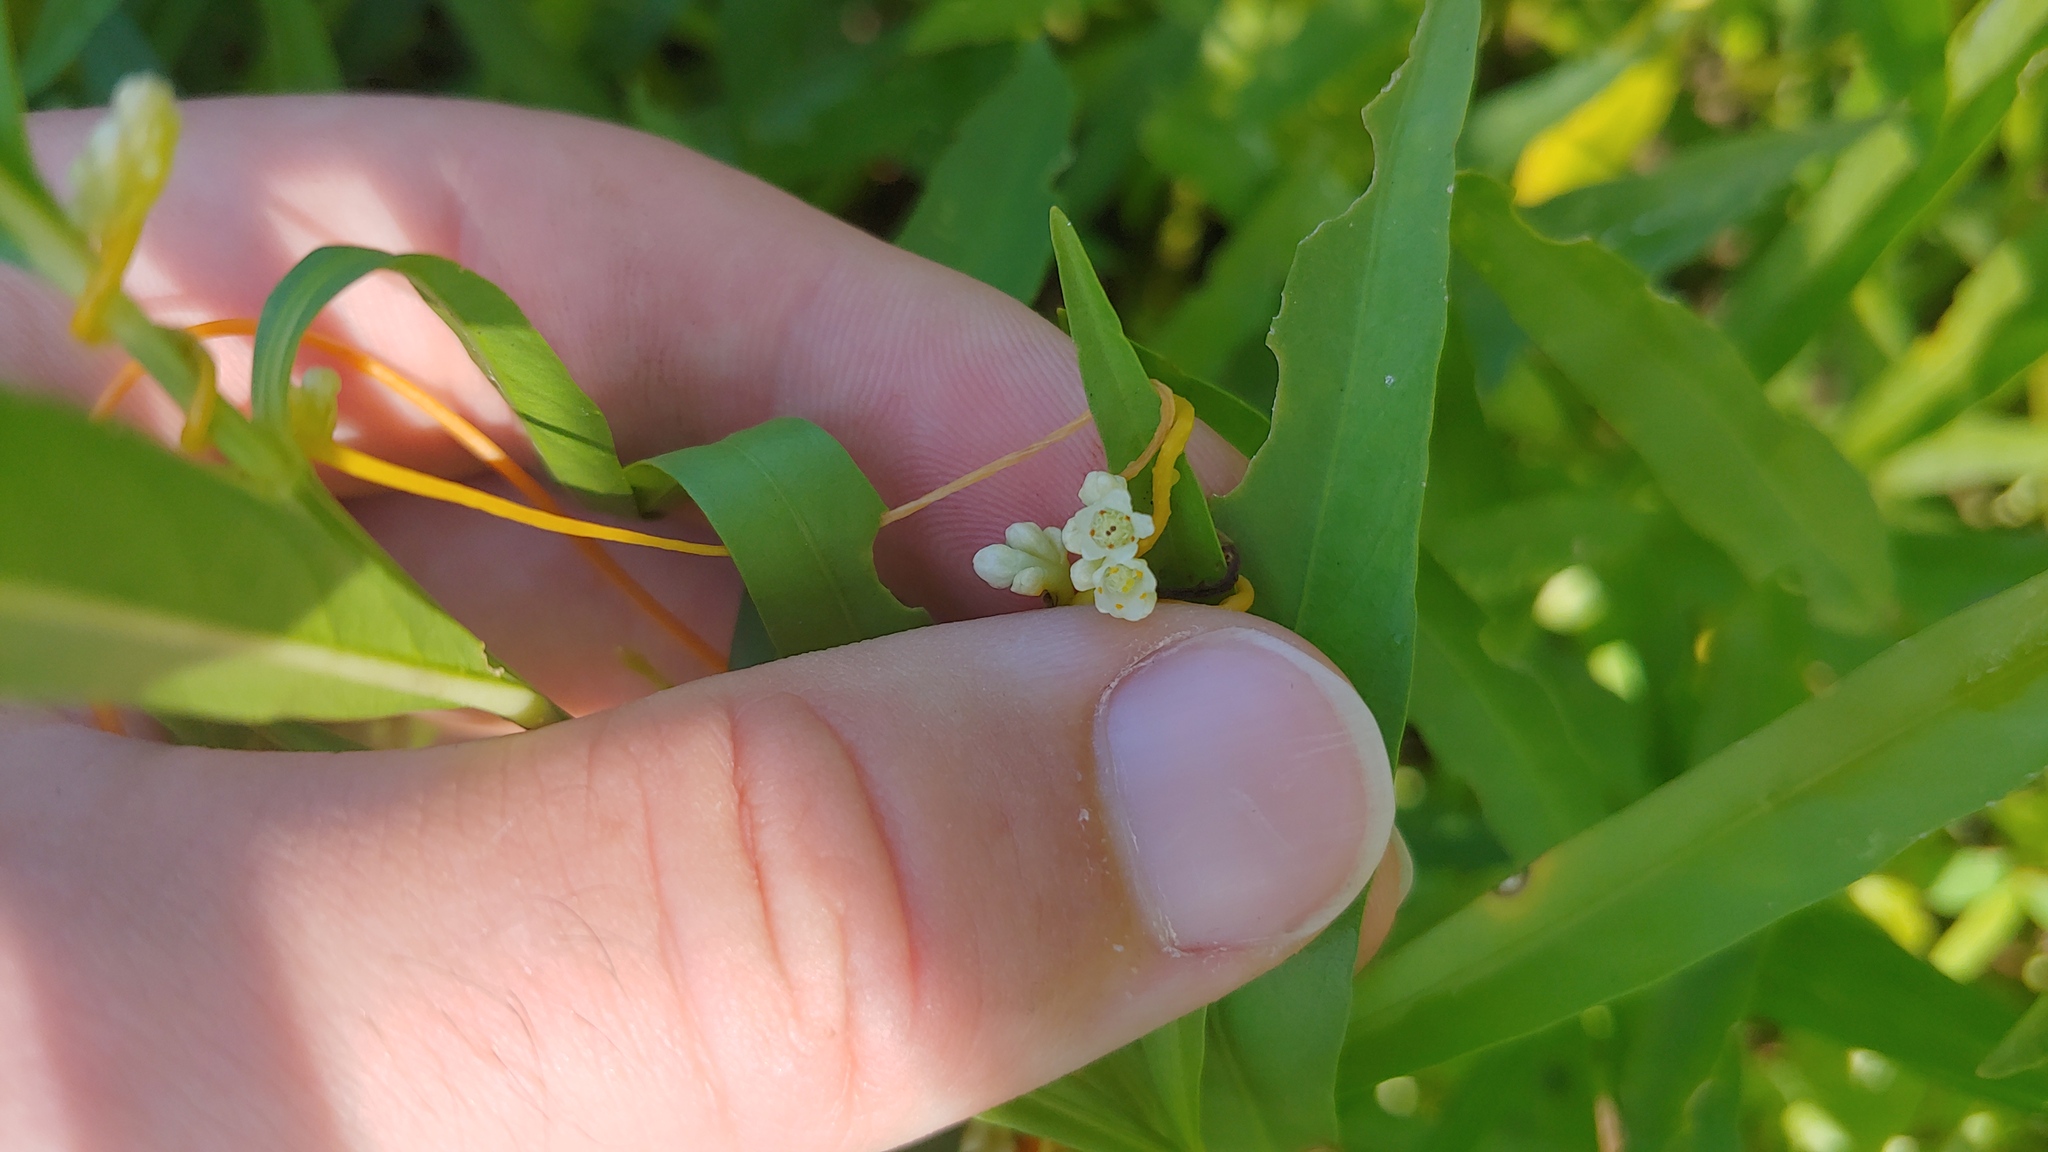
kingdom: Plantae
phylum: Tracheophyta
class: Magnoliopsida
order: Solanales
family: Convolvulaceae
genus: Cuscuta
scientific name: Cuscuta gronovii
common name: Common dodder
